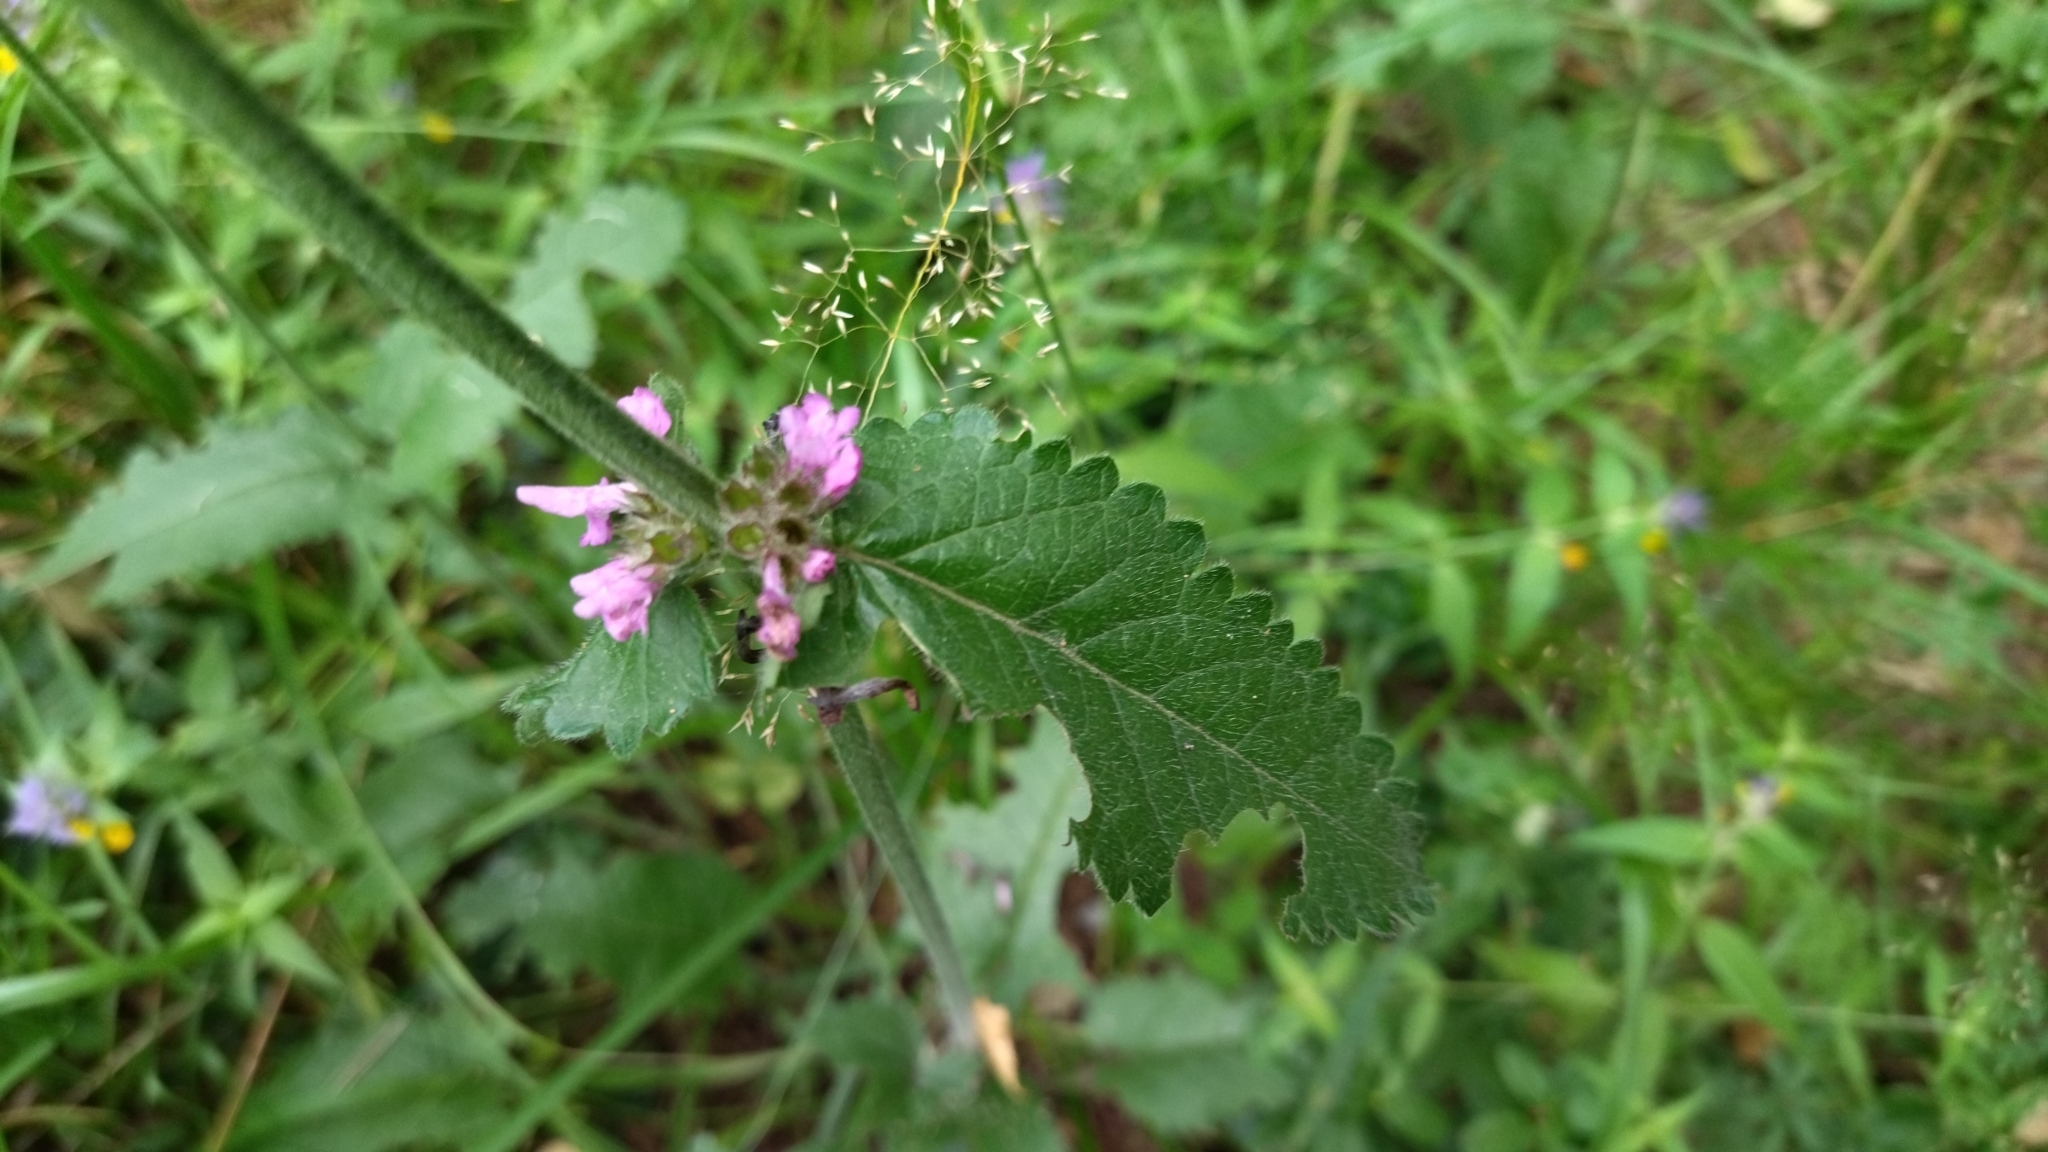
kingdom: Plantae
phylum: Tracheophyta
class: Magnoliopsida
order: Lamiales
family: Lamiaceae
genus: Betonica
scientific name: Betonica officinalis
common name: Bishop's-wort
